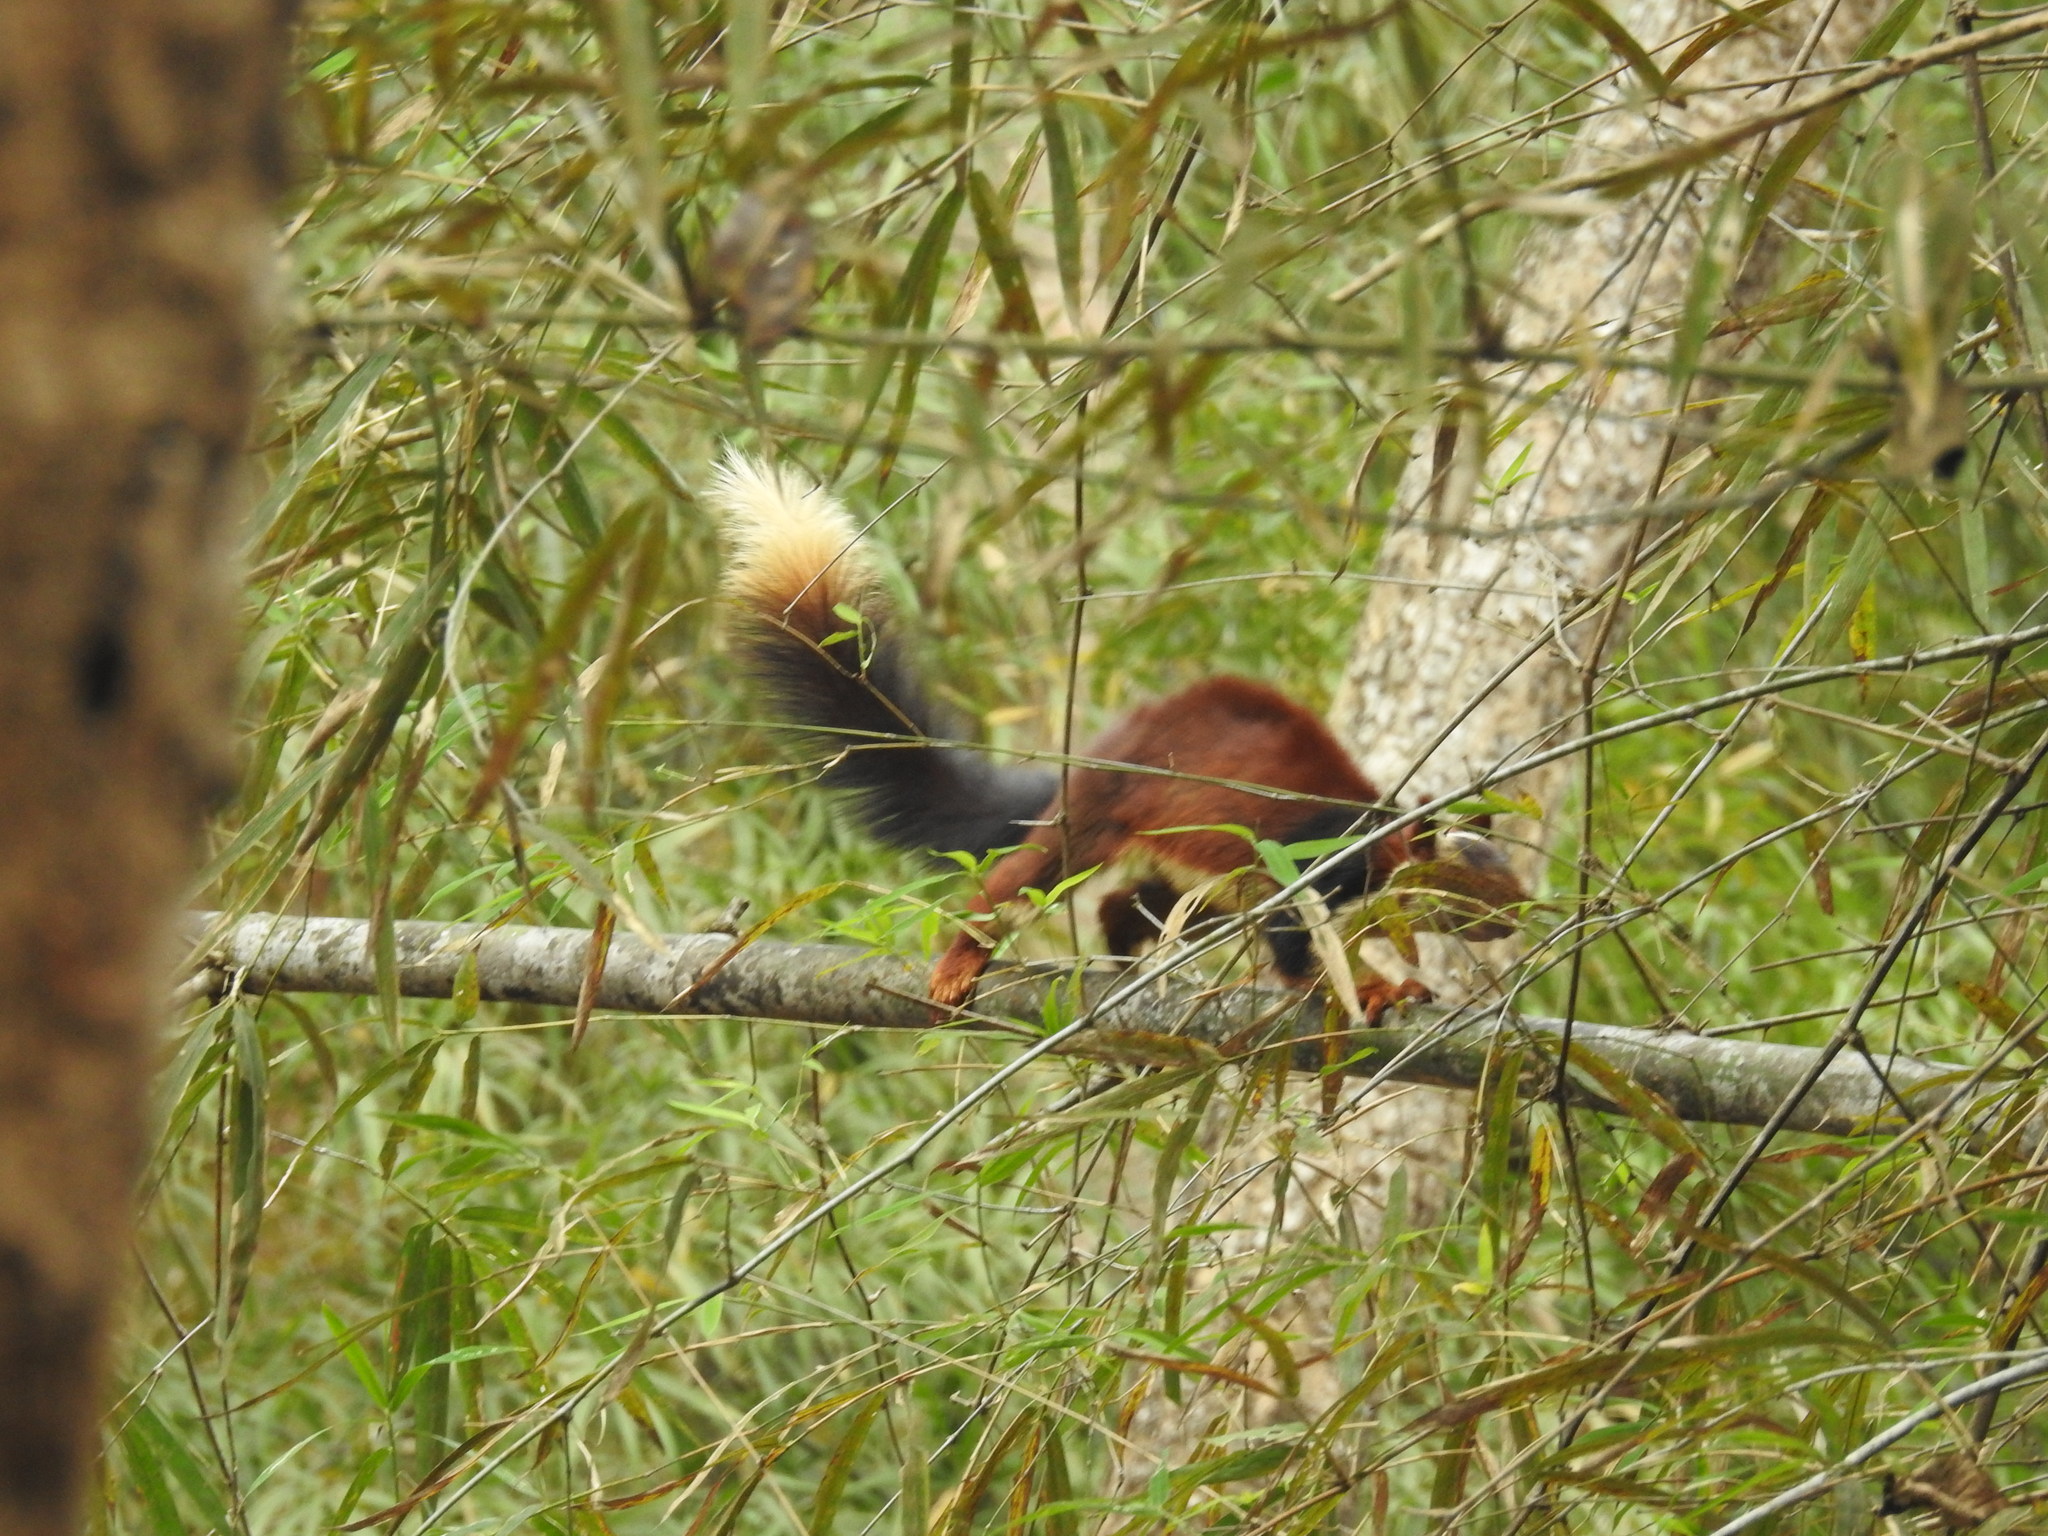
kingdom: Animalia
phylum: Chordata
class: Mammalia
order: Rodentia
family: Sciuridae
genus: Ratufa
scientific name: Ratufa indica
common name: Indian giant squirrel
